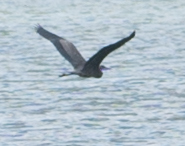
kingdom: Animalia
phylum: Chordata
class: Aves
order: Pelecaniformes
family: Ardeidae
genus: Ardea
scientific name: Ardea herodias
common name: Great blue heron
